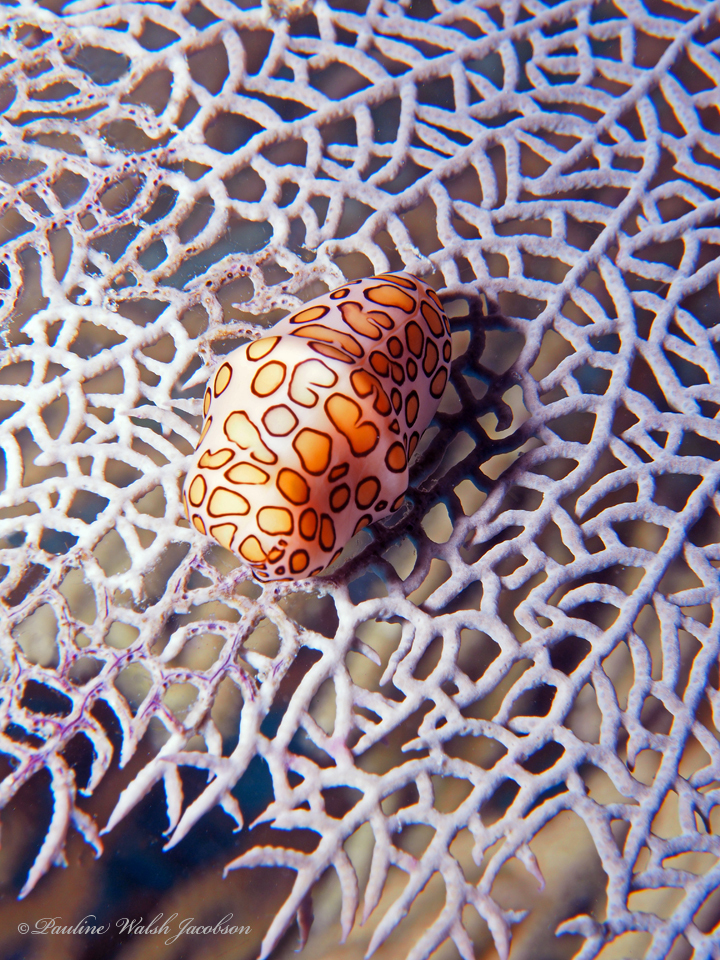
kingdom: Animalia
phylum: Mollusca
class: Gastropoda
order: Littorinimorpha
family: Ovulidae
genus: Cyphoma
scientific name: Cyphoma gibbosum
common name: Flamingo tongue
